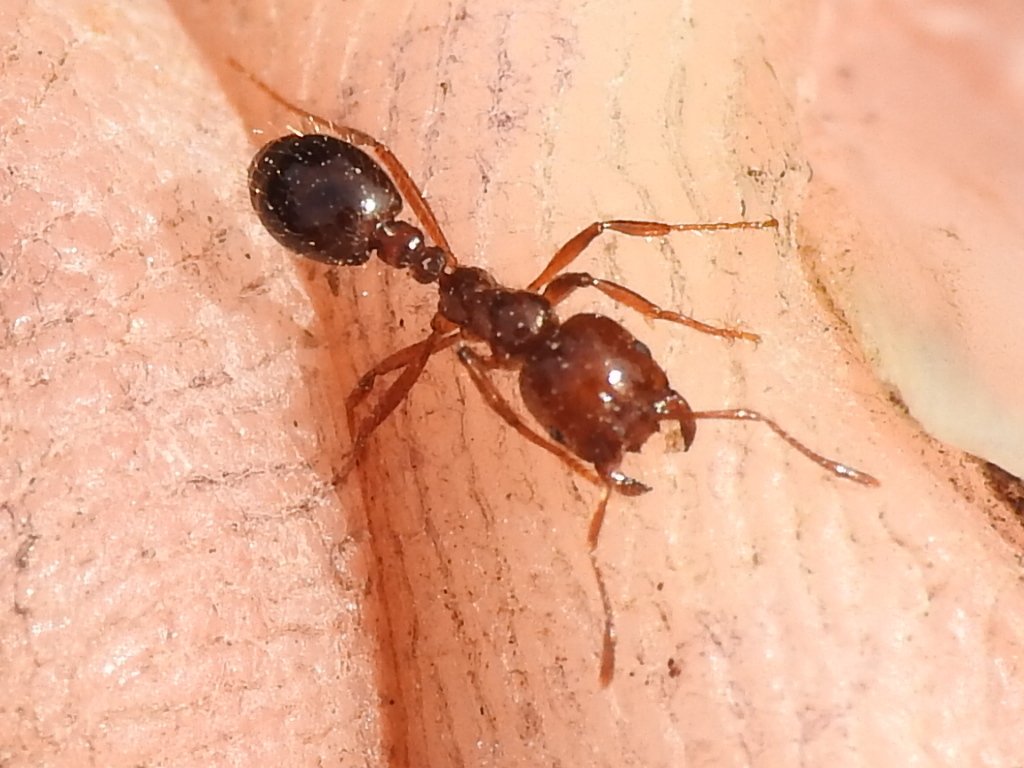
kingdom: Animalia
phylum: Arthropoda
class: Insecta
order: Hymenoptera
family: Formicidae
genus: Solenopsis
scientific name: Solenopsis invicta
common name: Red imported fire ant
